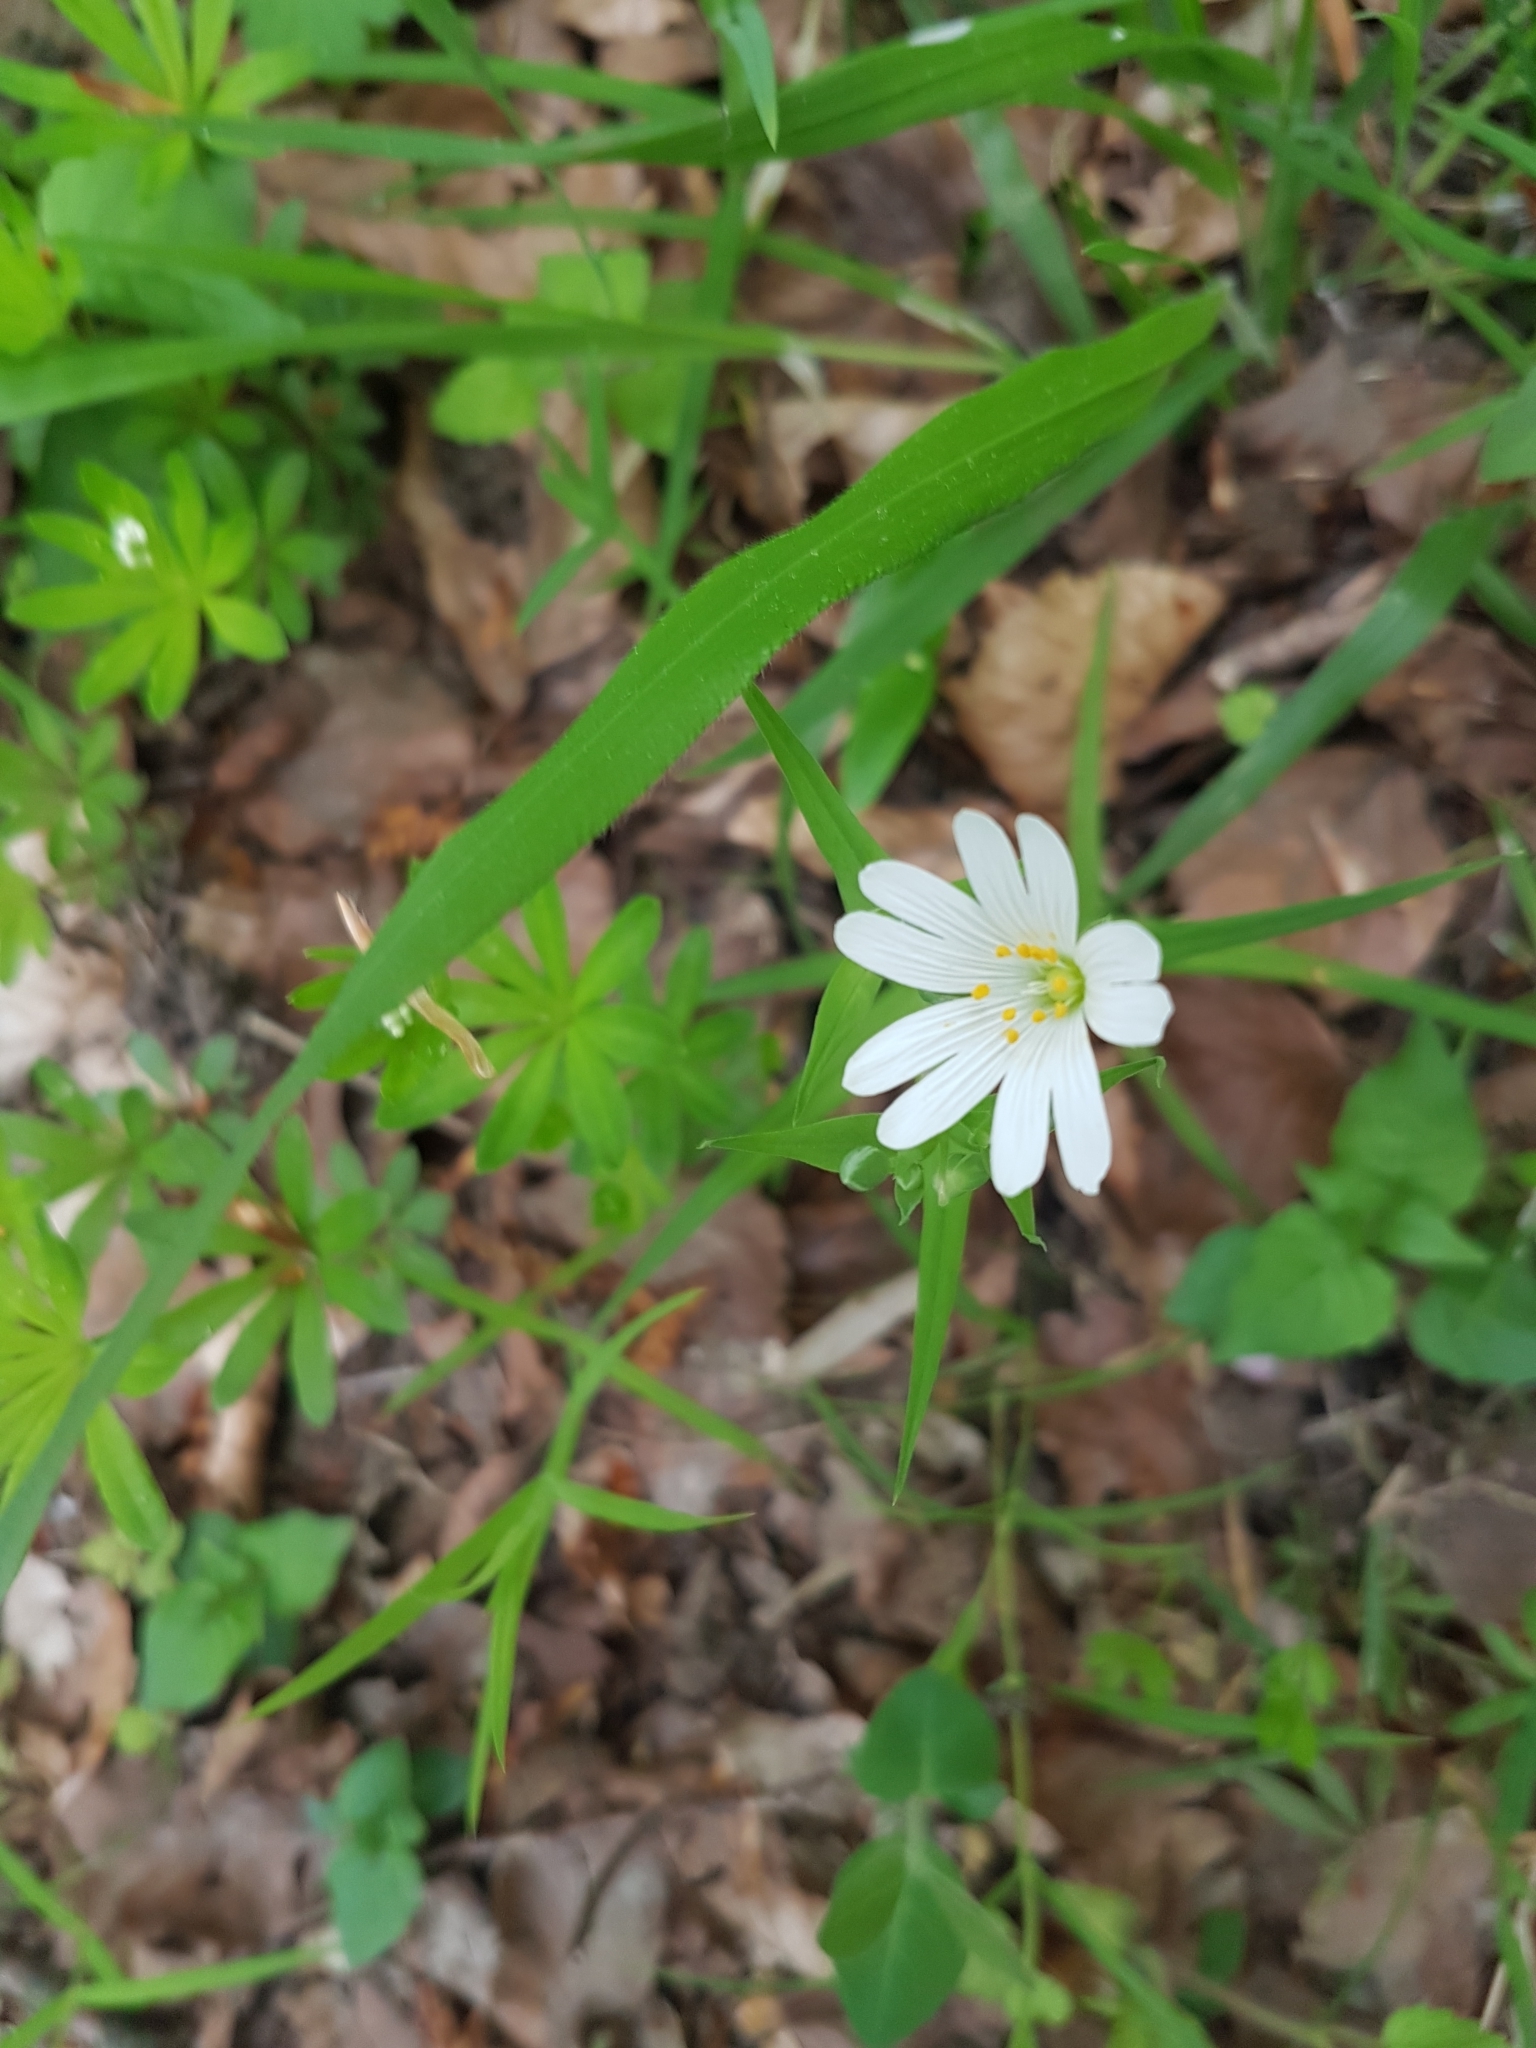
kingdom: Plantae
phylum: Tracheophyta
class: Magnoliopsida
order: Caryophyllales
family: Caryophyllaceae
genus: Rabelera
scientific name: Rabelera holostea
